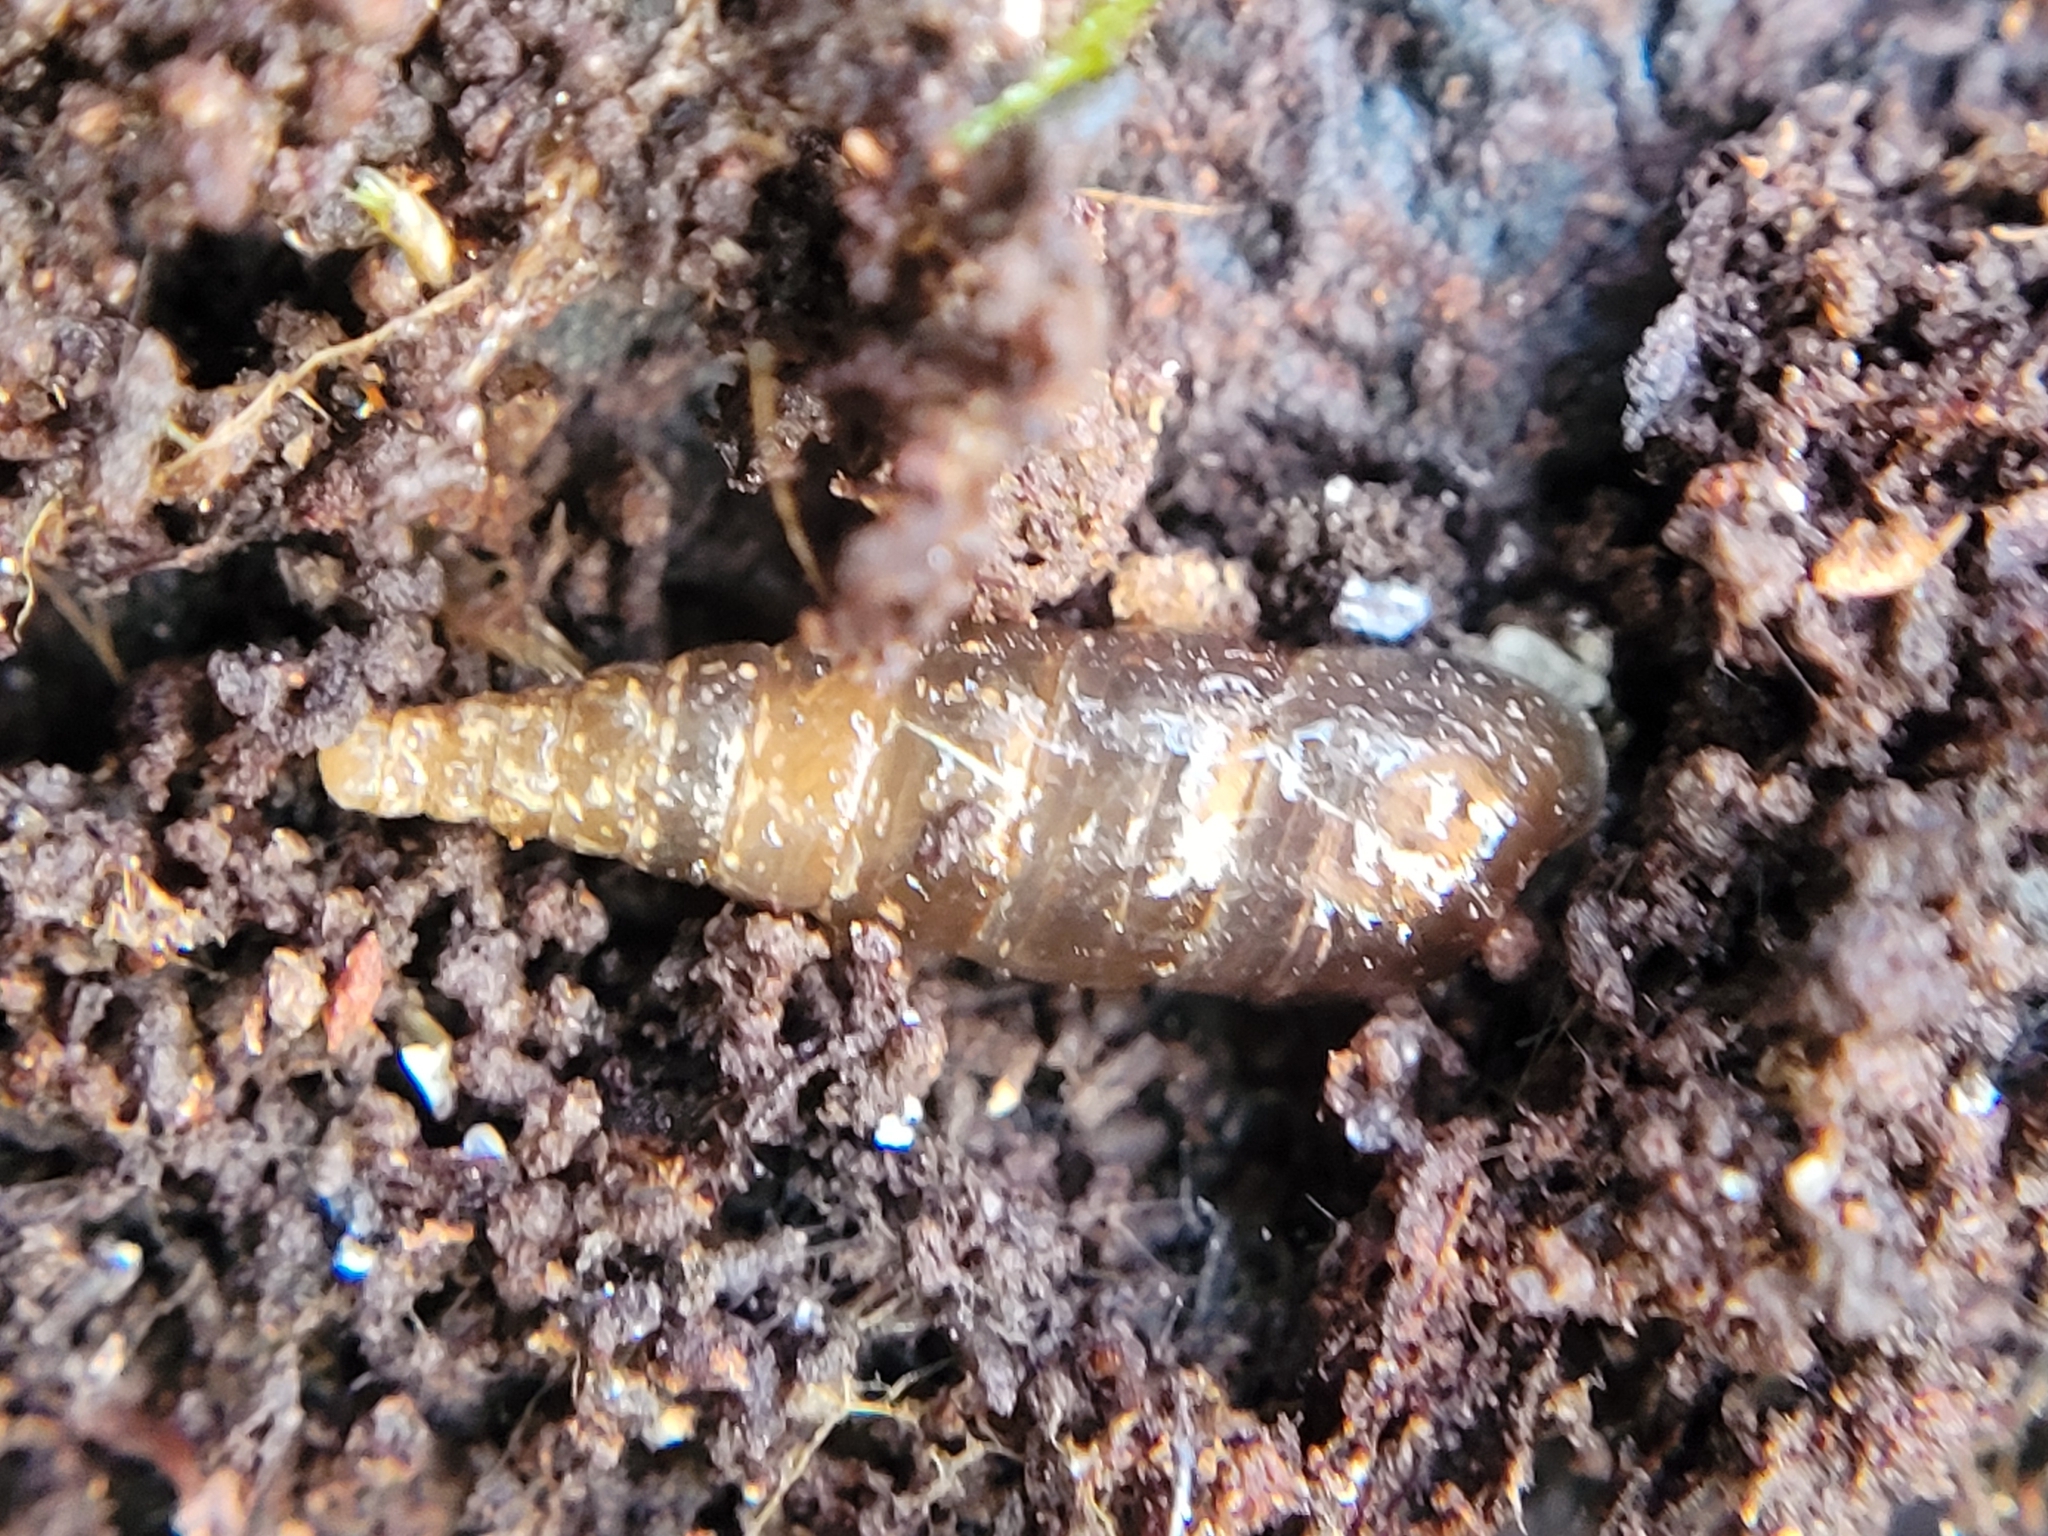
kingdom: Animalia
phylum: Mollusca
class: Gastropoda
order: Stylommatophora
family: Clausiliidae
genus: Cochlodina
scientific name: Cochlodina laminata
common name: Plaited door snail
